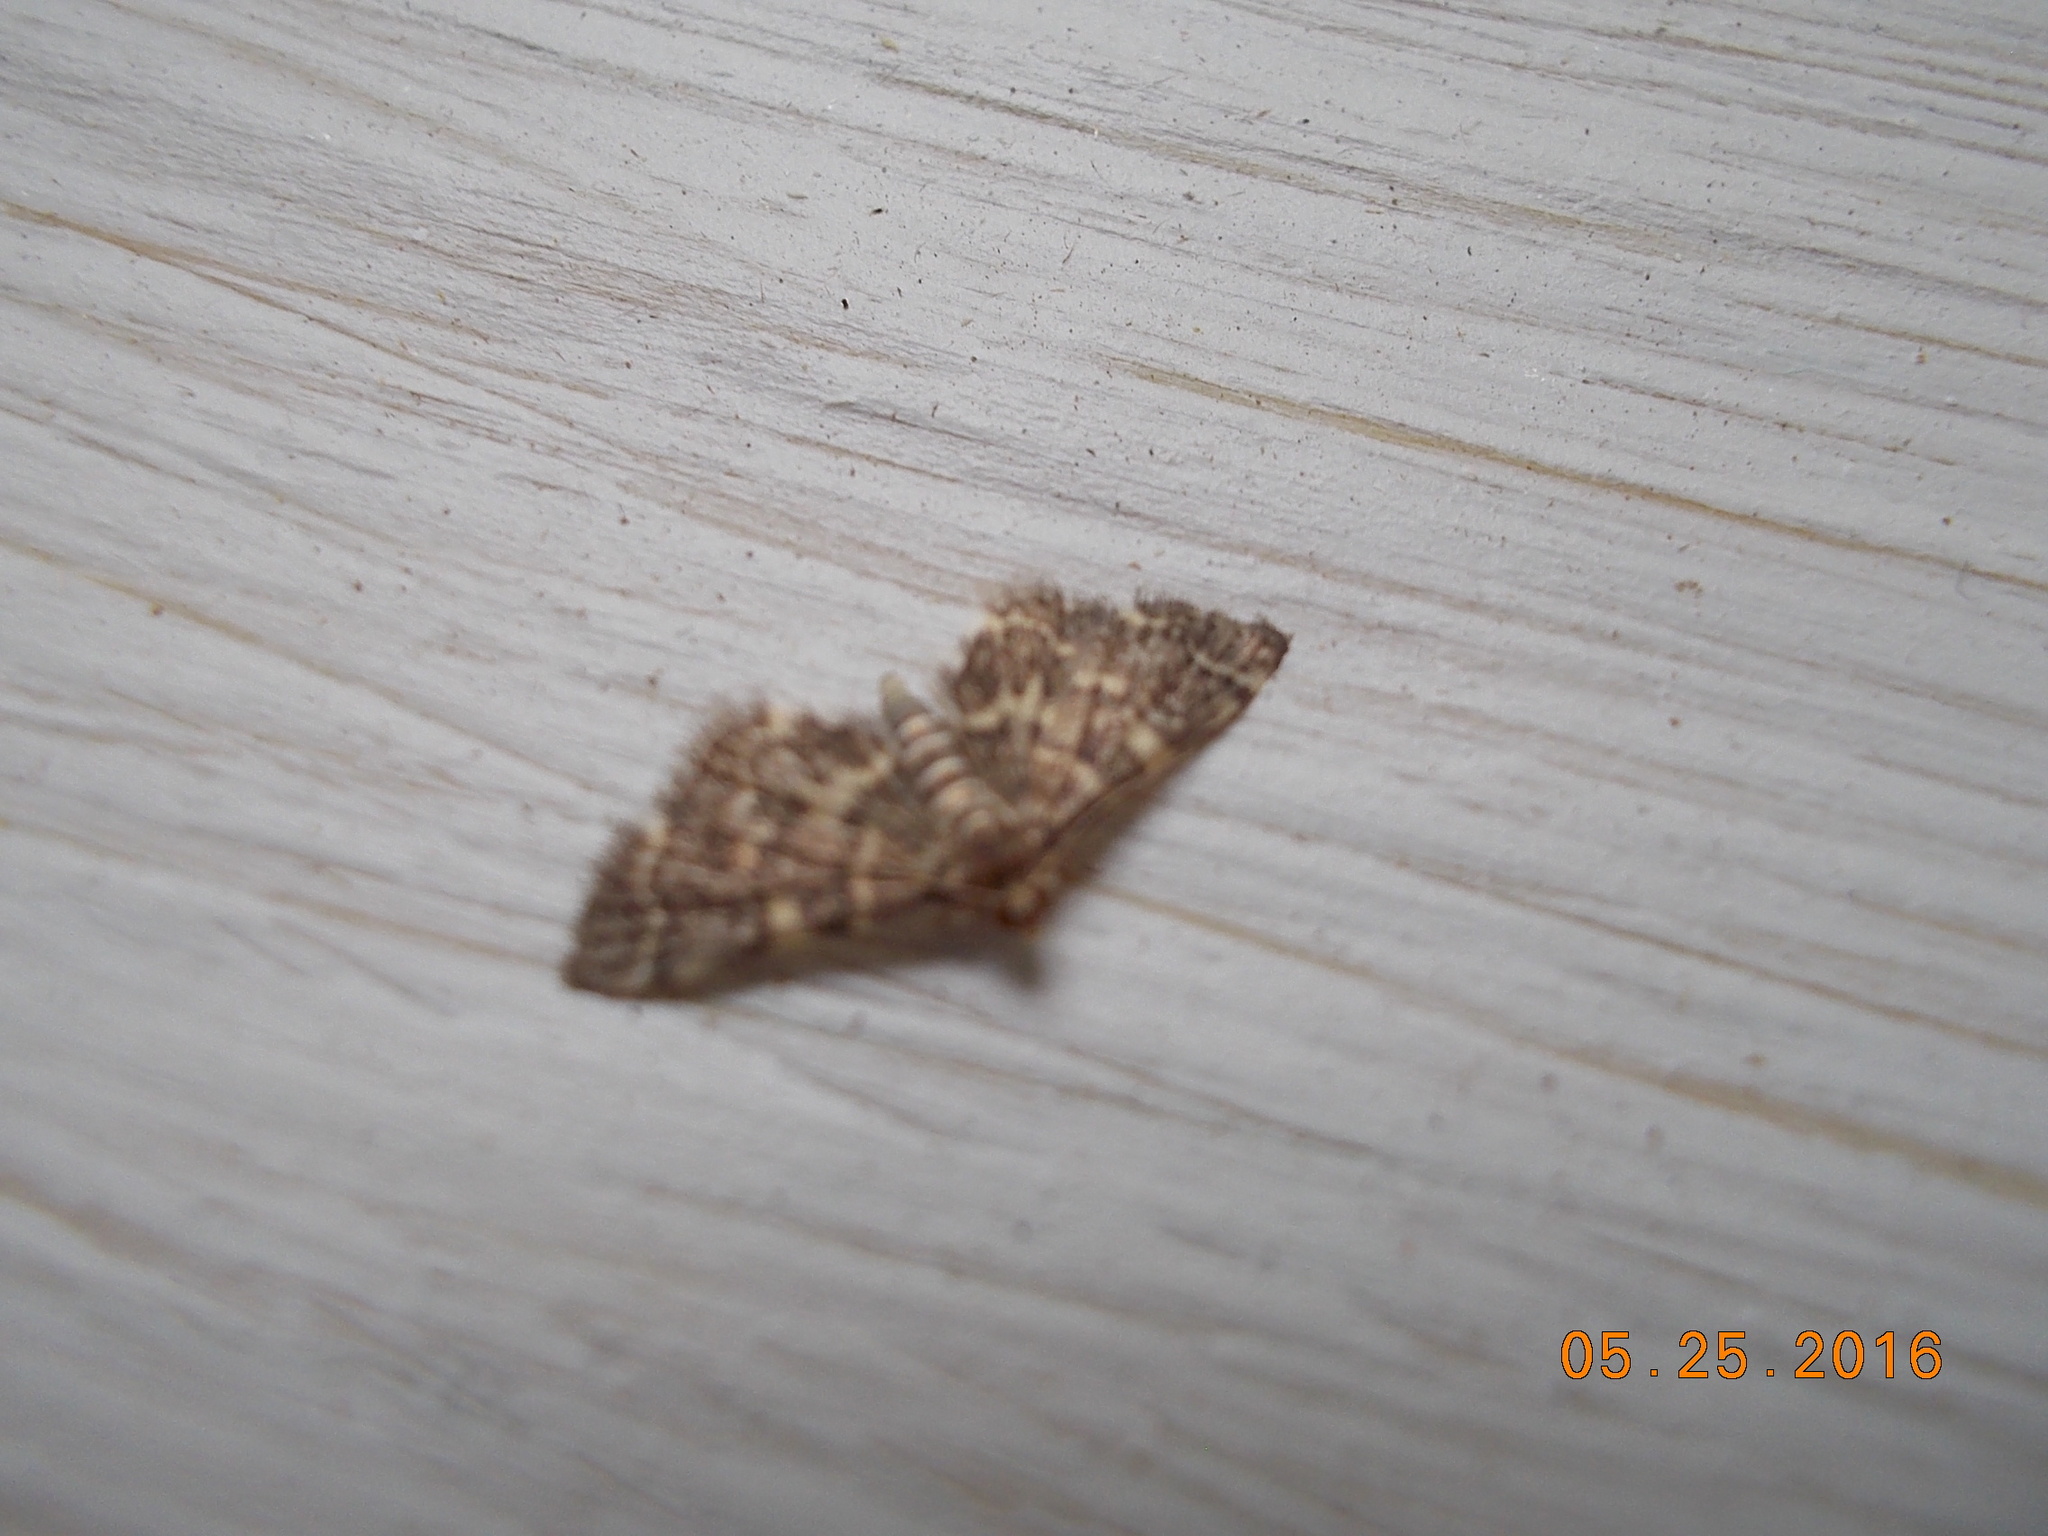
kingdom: Animalia
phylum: Arthropoda
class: Insecta
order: Lepidoptera
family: Crambidae
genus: Anageshna
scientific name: Anageshna primordialis
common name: Yellow-spotted webworm moth
